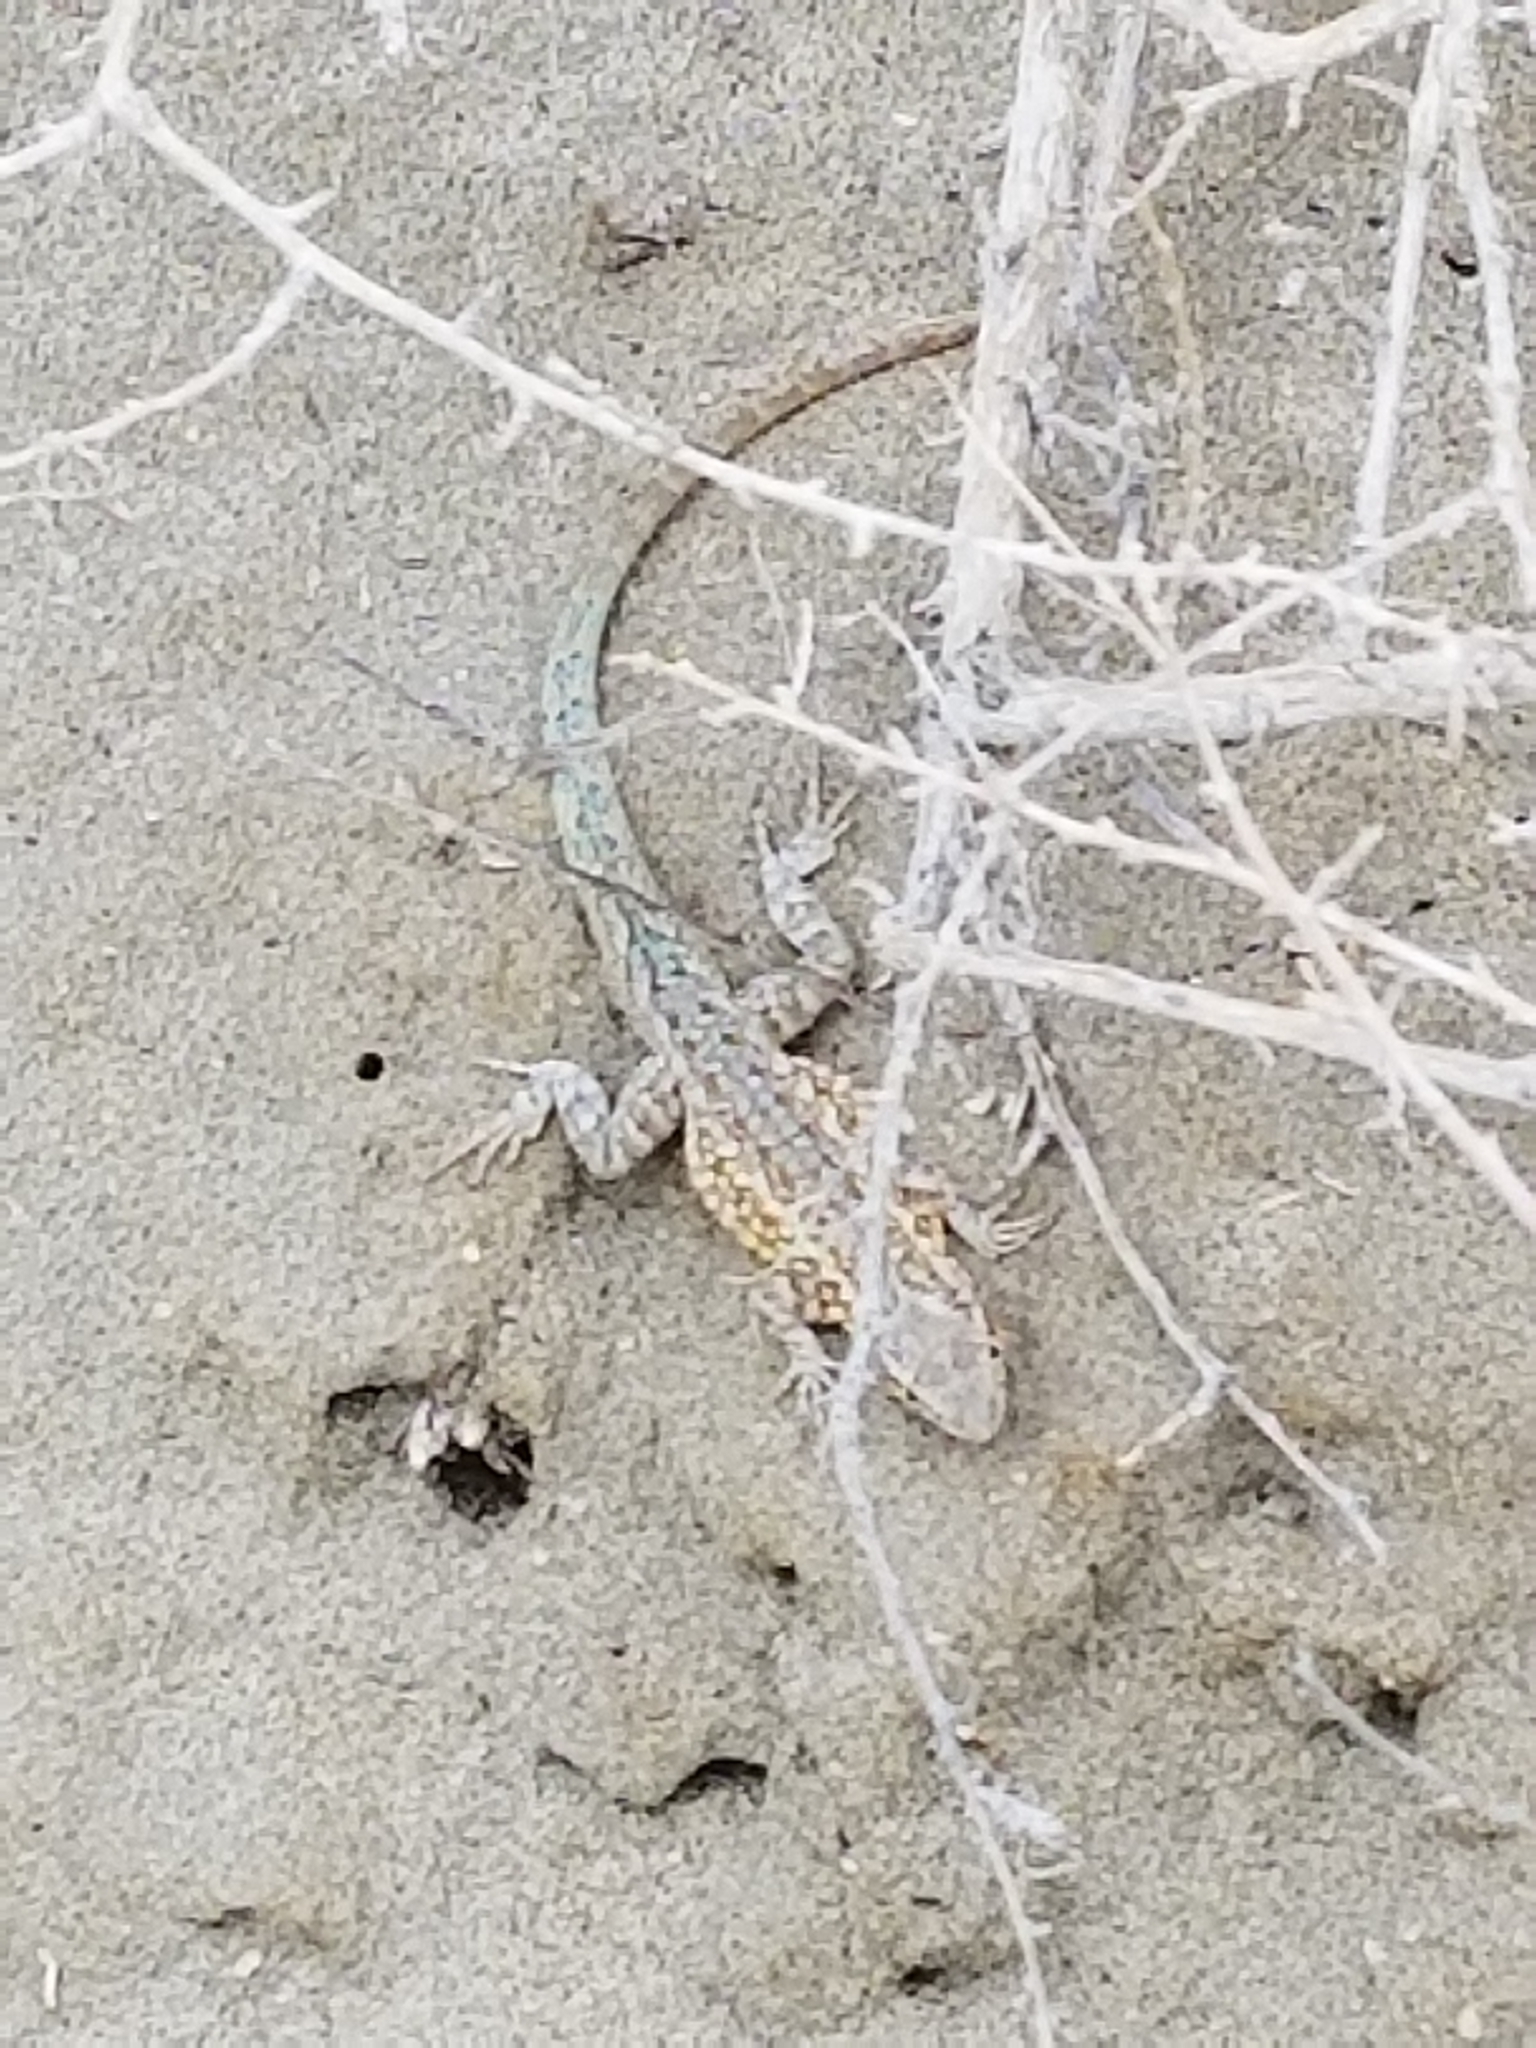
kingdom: Animalia
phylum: Chordata
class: Squamata
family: Phrynosomatidae
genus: Uta
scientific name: Uta stansburiana
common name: Side-blotched lizard
